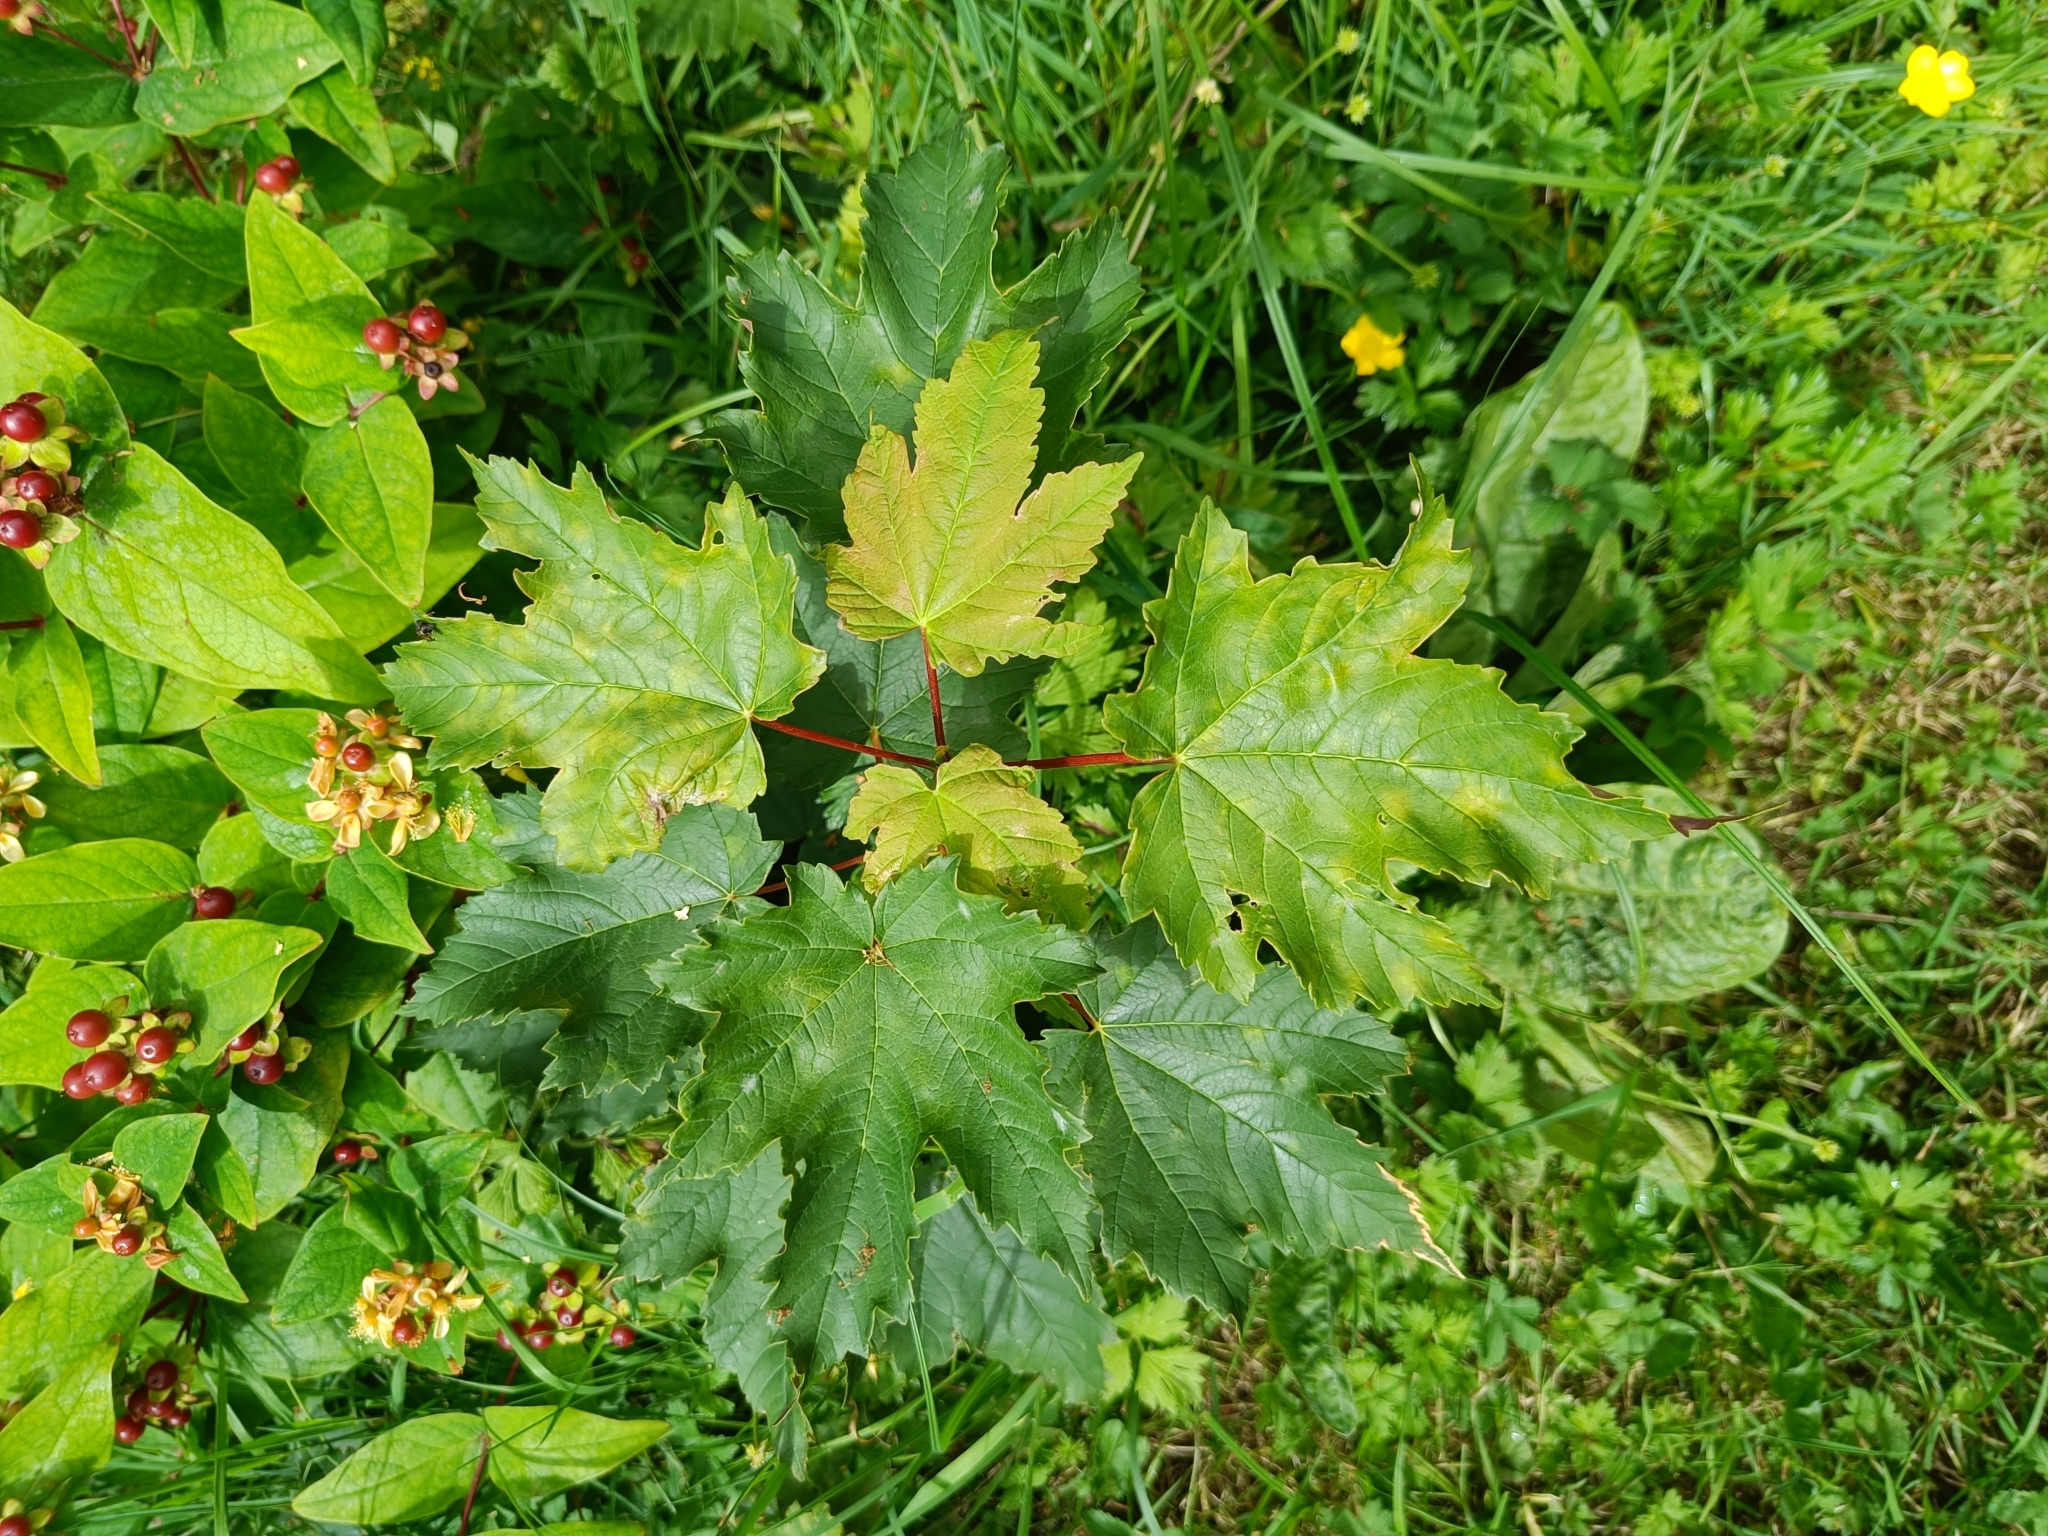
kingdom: Plantae
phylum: Tracheophyta
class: Magnoliopsida
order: Sapindales
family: Sapindaceae
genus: Acer
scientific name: Acer pseudoplatanus
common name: Sycamore
